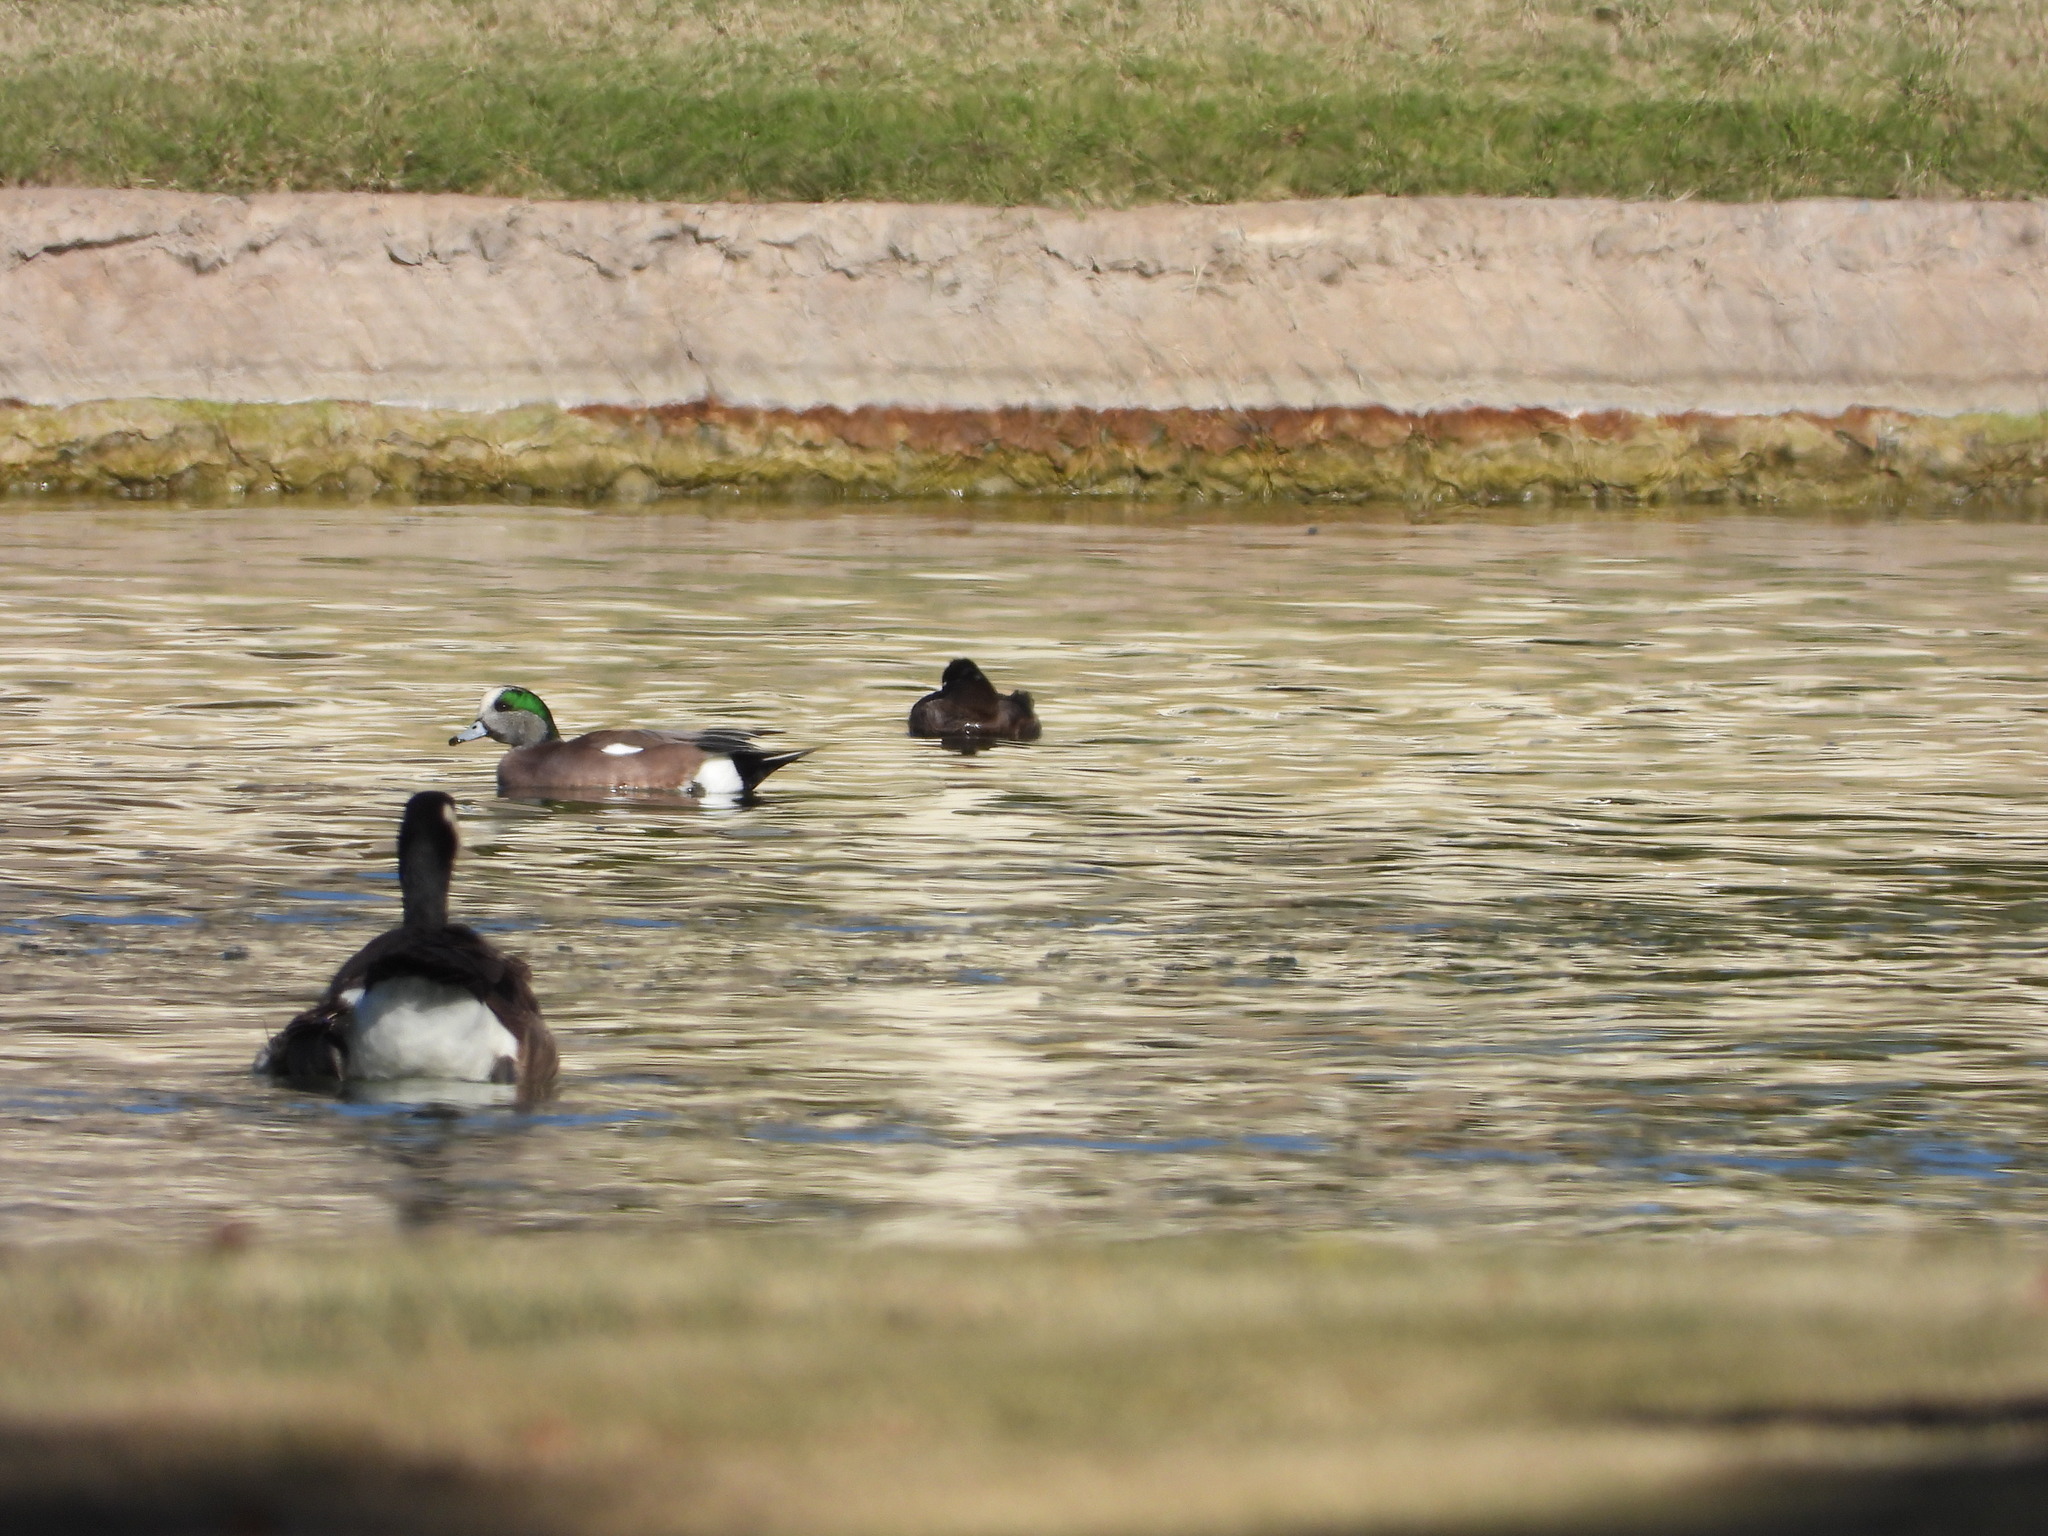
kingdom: Animalia
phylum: Chordata
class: Aves
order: Anseriformes
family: Anatidae
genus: Mareca
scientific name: Mareca americana
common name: American wigeon
